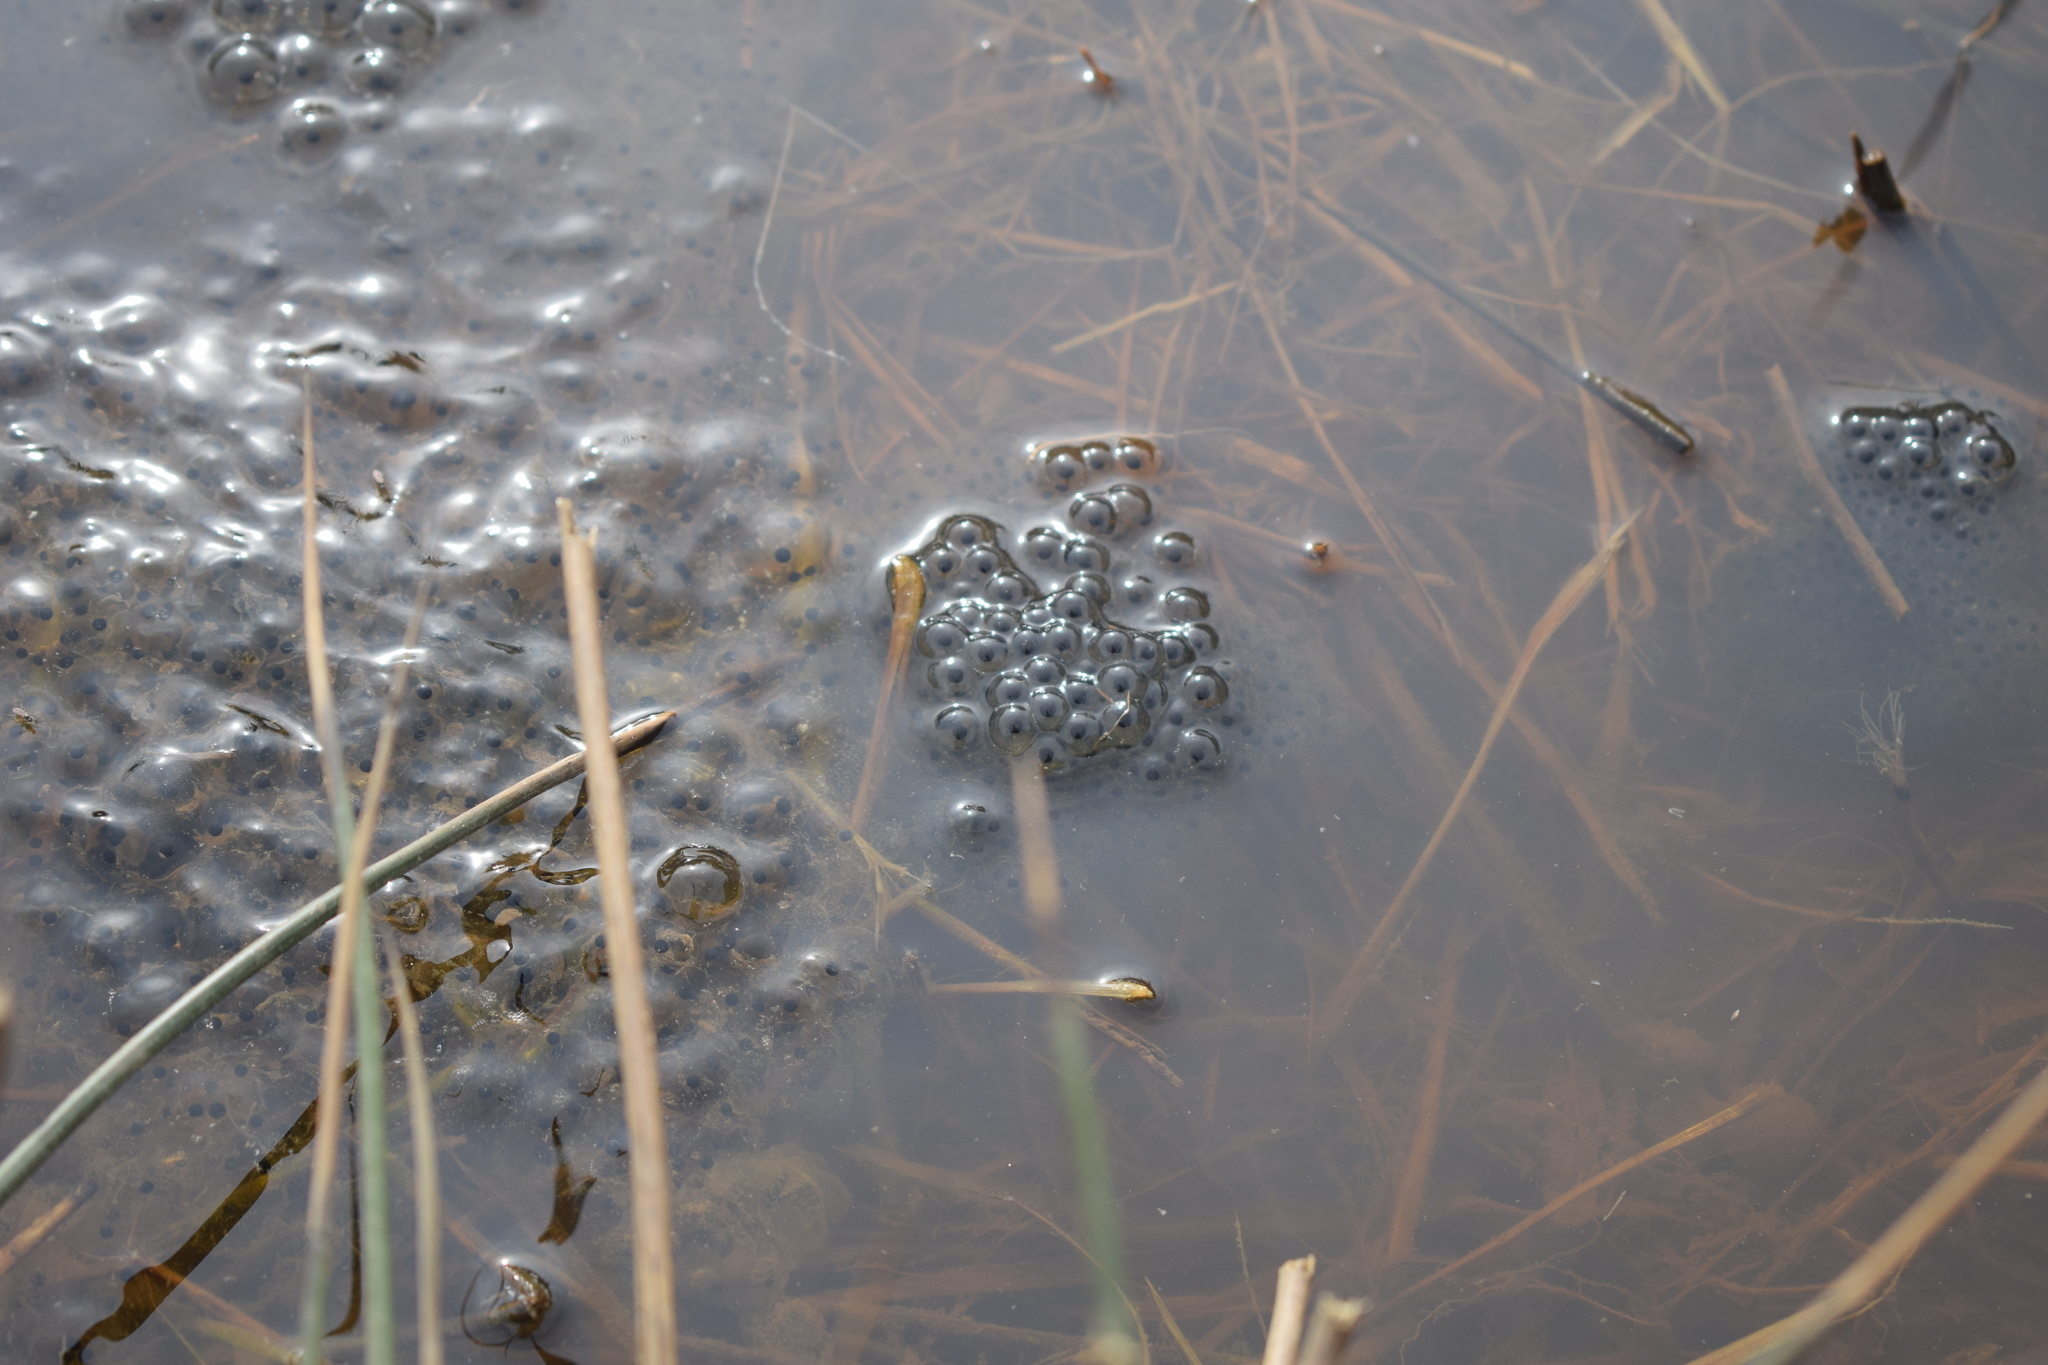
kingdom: Animalia
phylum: Chordata
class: Amphibia
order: Anura
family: Ranidae
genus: Rana
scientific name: Rana temporaria
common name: Common frog
